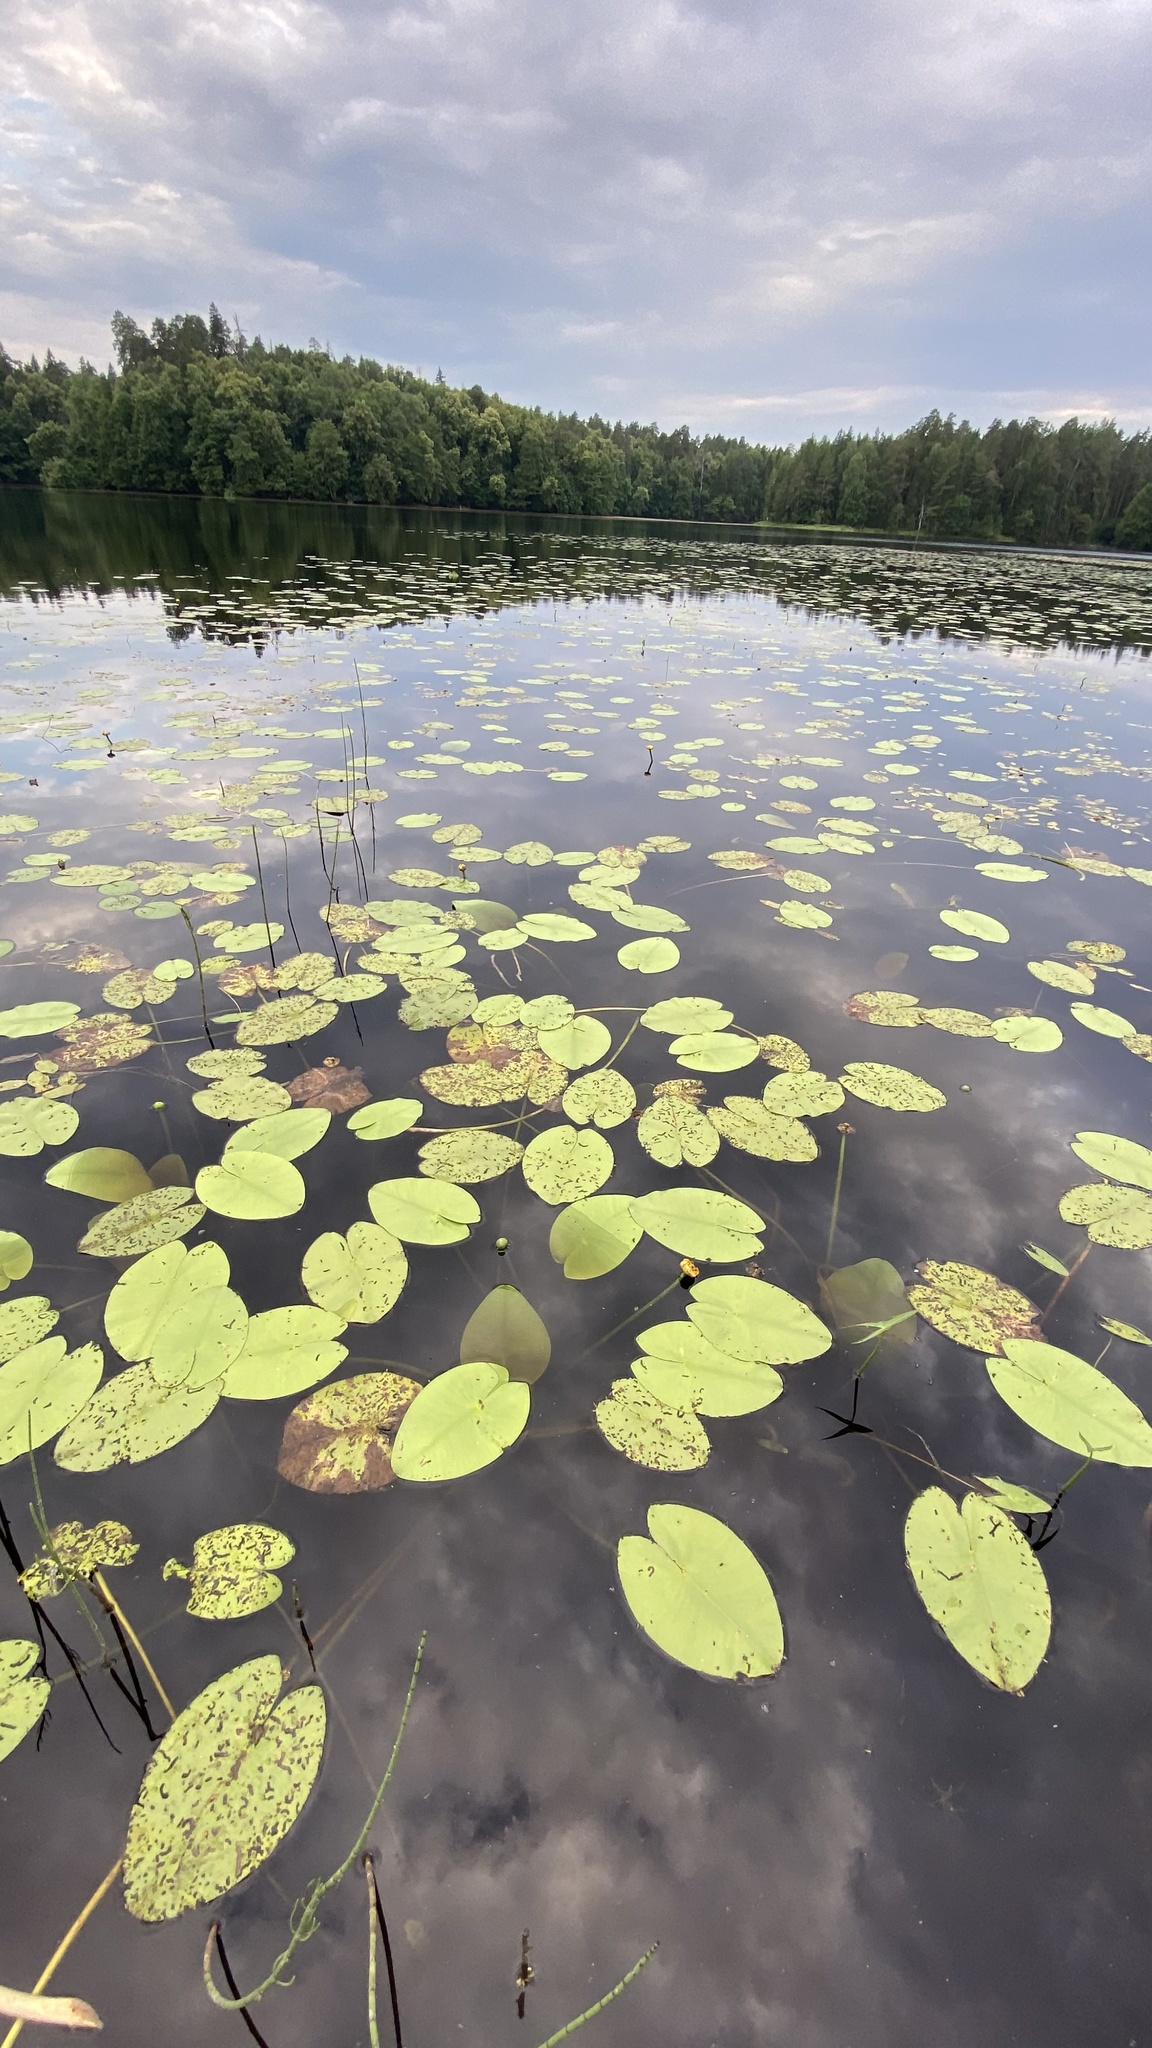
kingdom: Plantae
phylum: Tracheophyta
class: Magnoliopsida
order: Nymphaeales
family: Nymphaeaceae
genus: Nuphar
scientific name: Nuphar lutea
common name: Yellow water-lily
